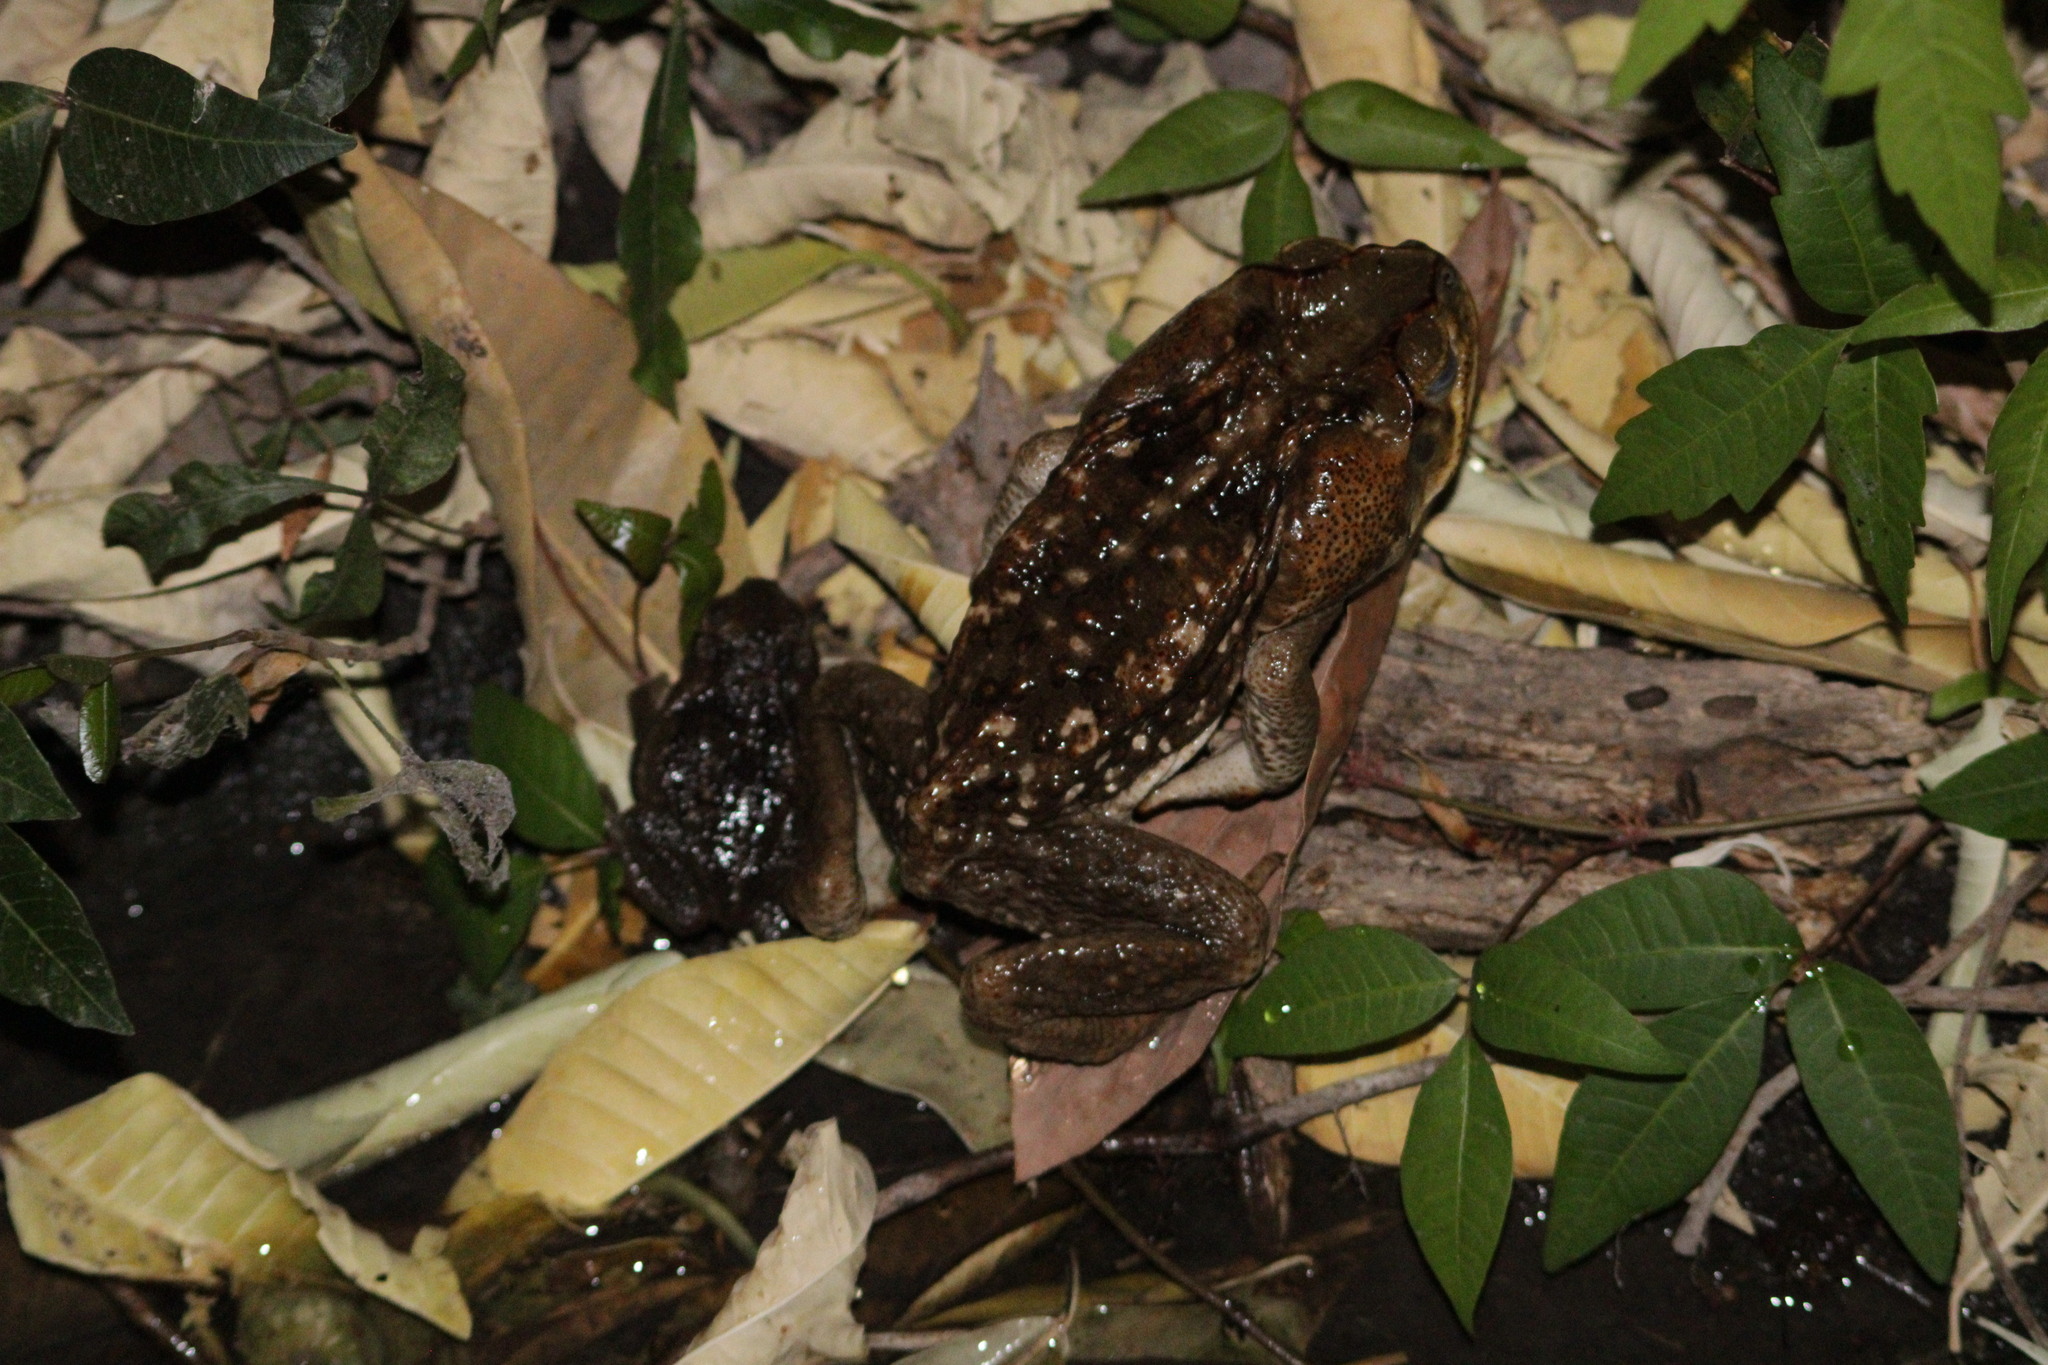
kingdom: Animalia
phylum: Chordata
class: Amphibia
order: Anura
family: Bufonidae
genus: Rhinella
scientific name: Rhinella horribilis
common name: Mesoamerican cane toad
